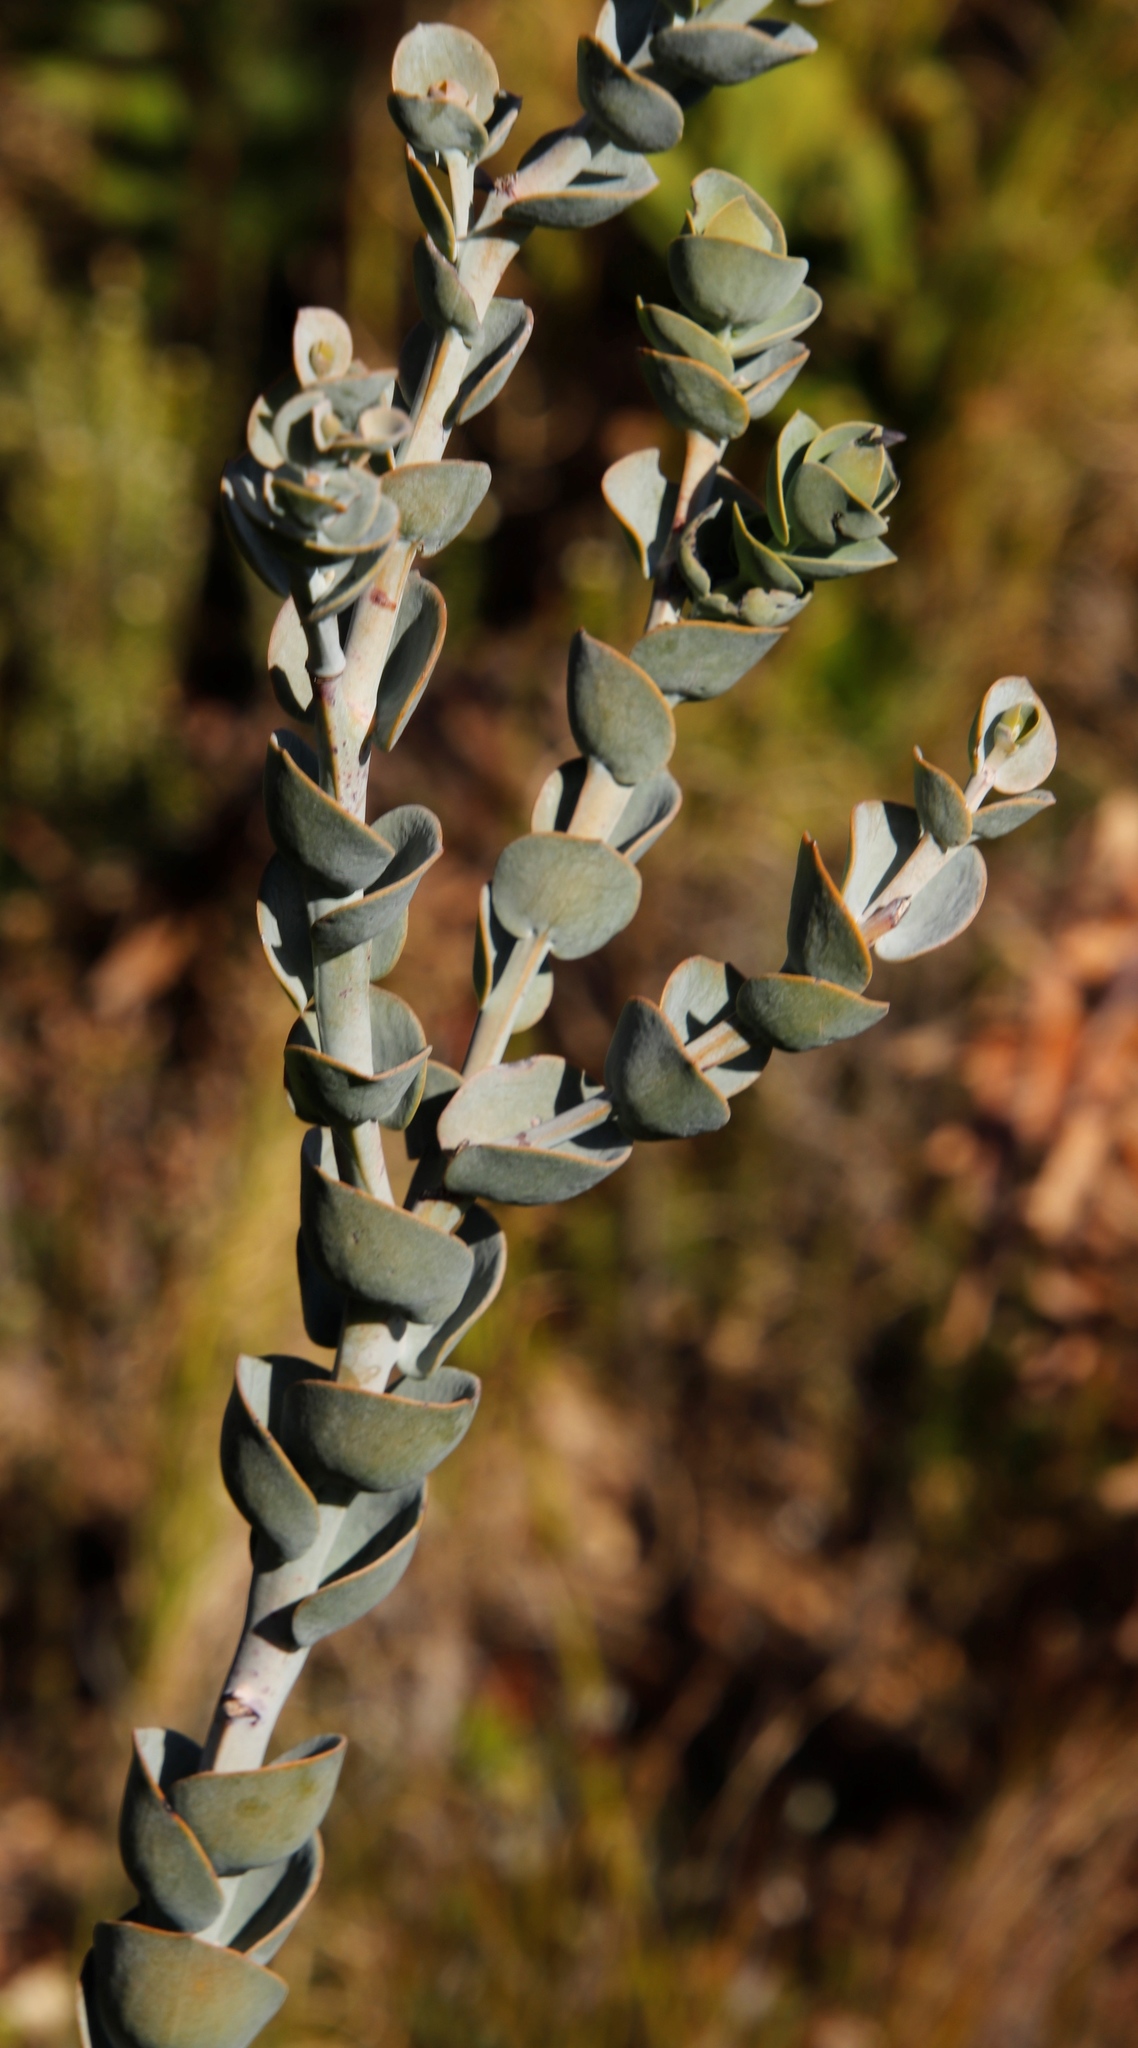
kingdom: Plantae
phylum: Tracheophyta
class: Magnoliopsida
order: Santalales
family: Thesiaceae
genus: Thesium
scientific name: Thesium euphorbioides
